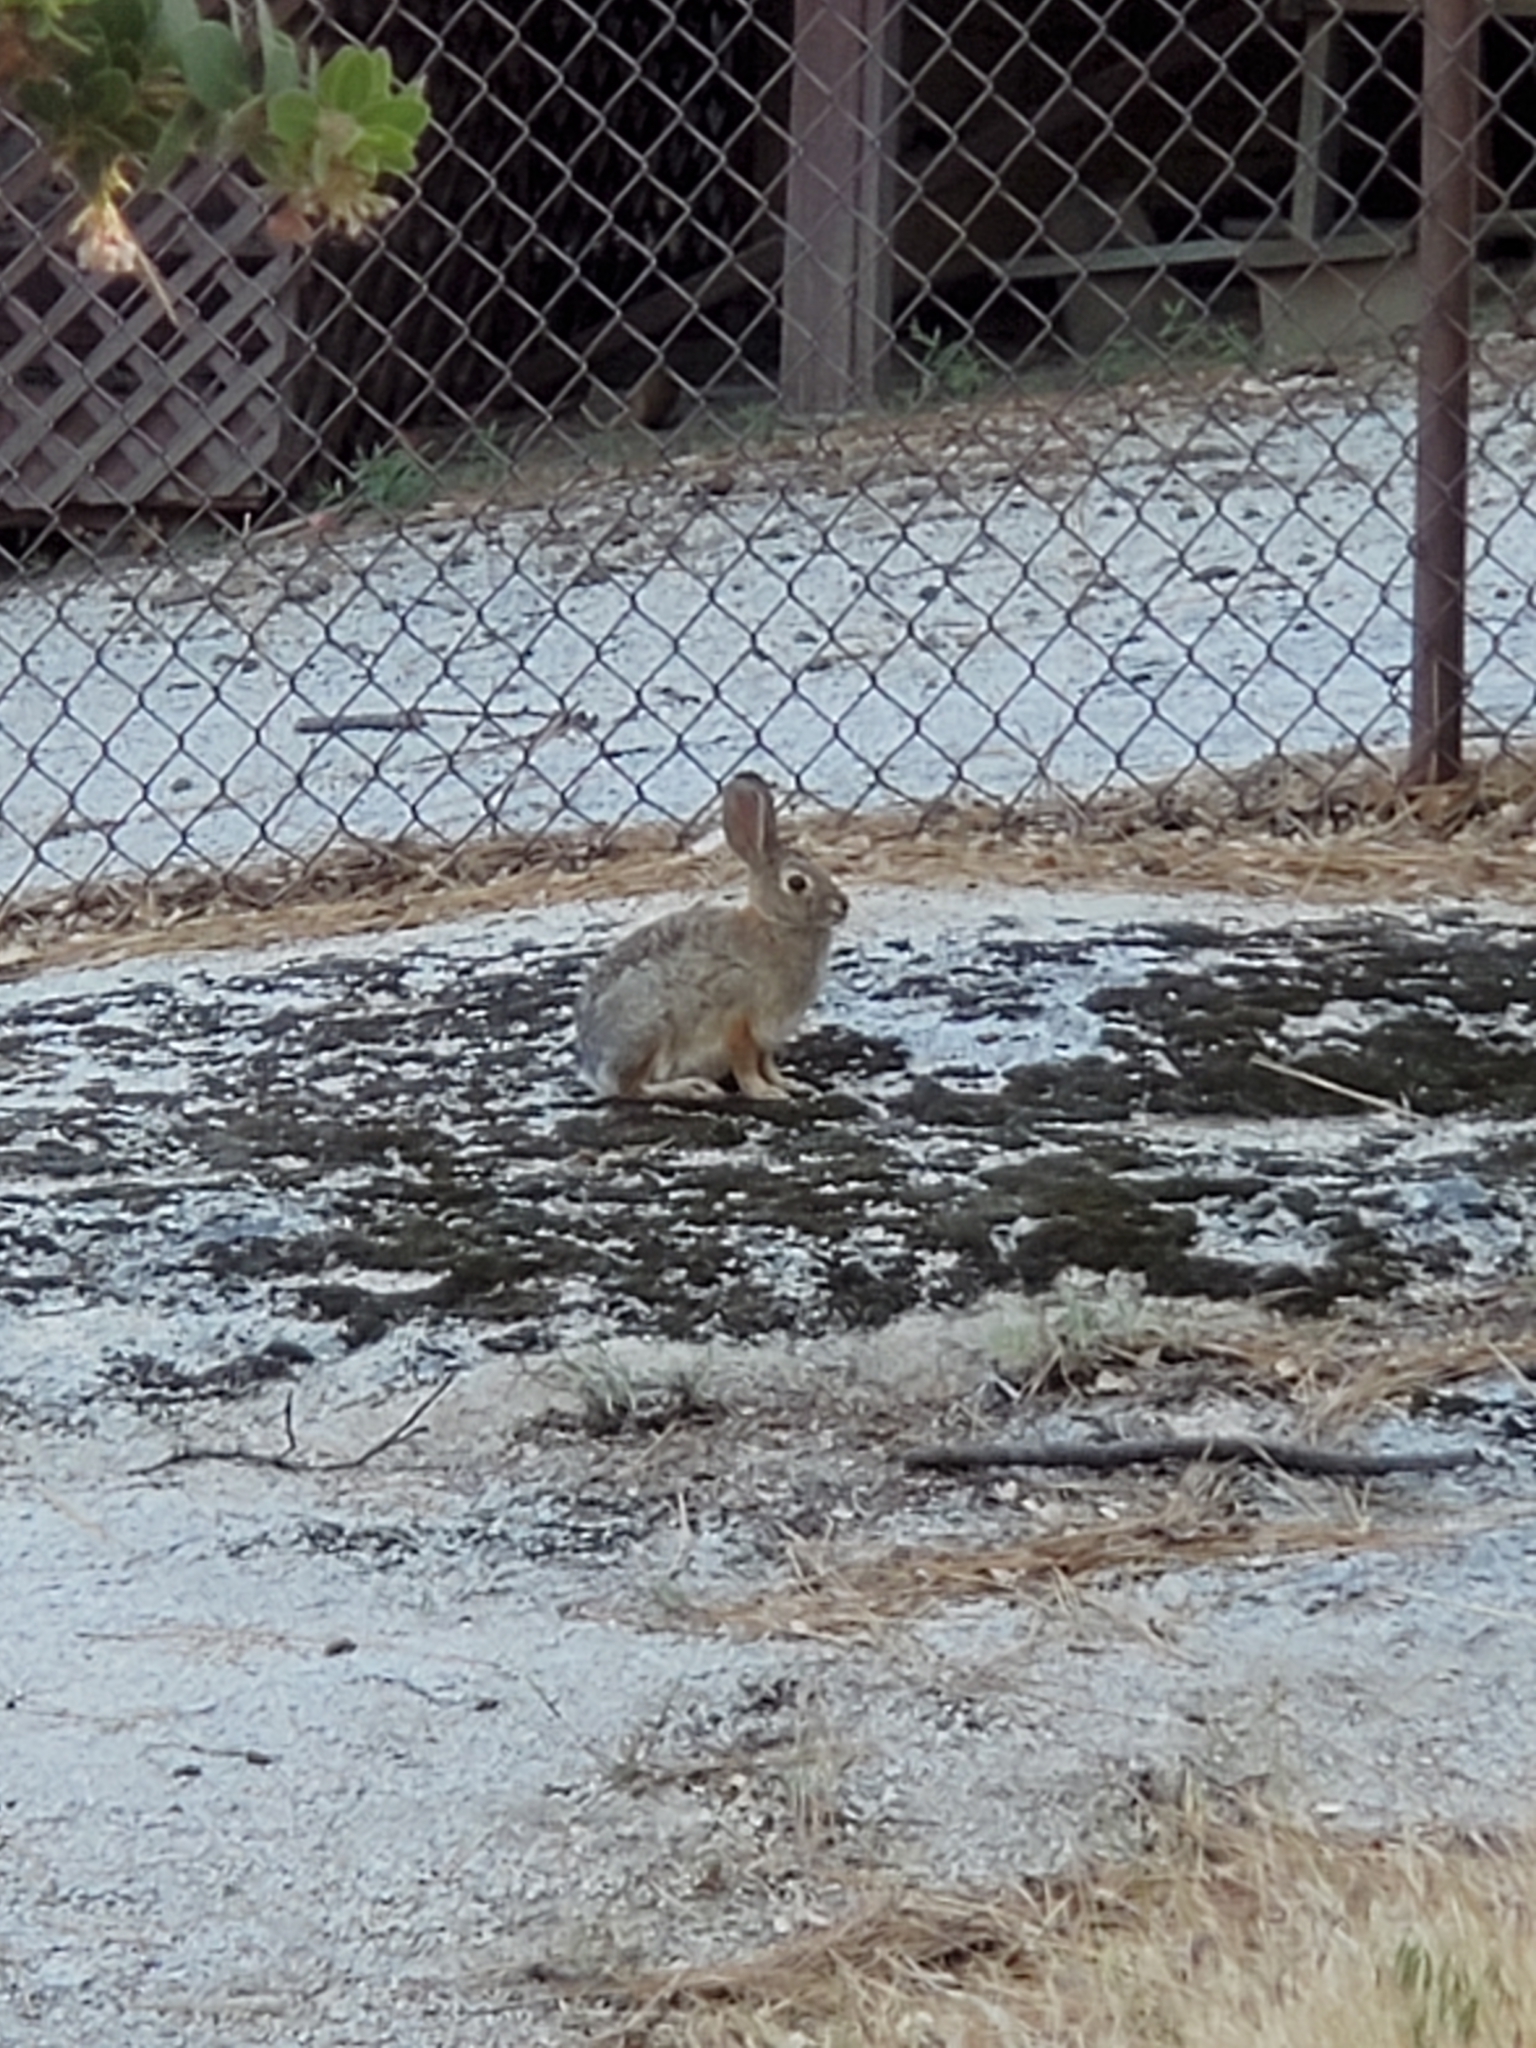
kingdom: Animalia
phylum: Chordata
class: Mammalia
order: Lagomorpha
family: Leporidae
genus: Sylvilagus
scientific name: Sylvilagus audubonii
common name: Desert cottontail
